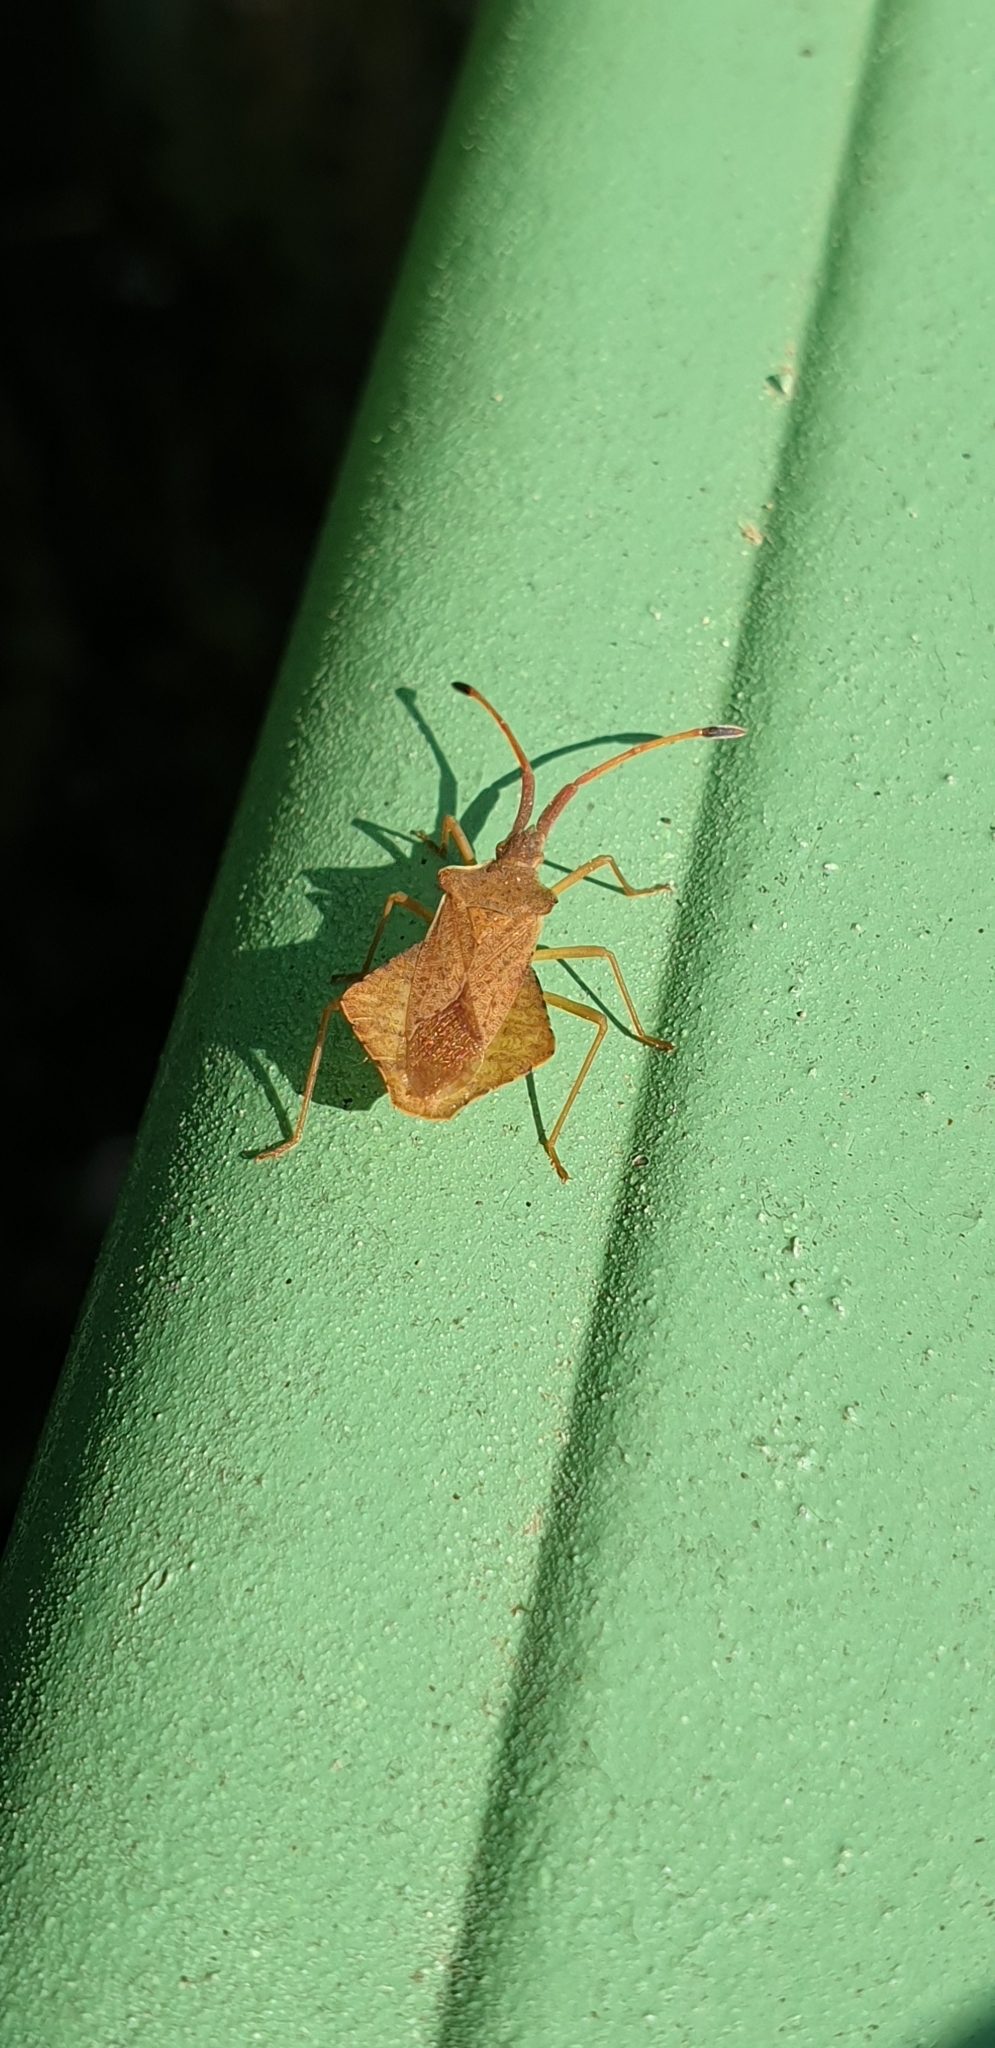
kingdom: Animalia
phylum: Arthropoda
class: Insecta
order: Hemiptera
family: Coreidae
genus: Syromastus
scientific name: Syromastus rhombeus
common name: Rhombic leatherbug
